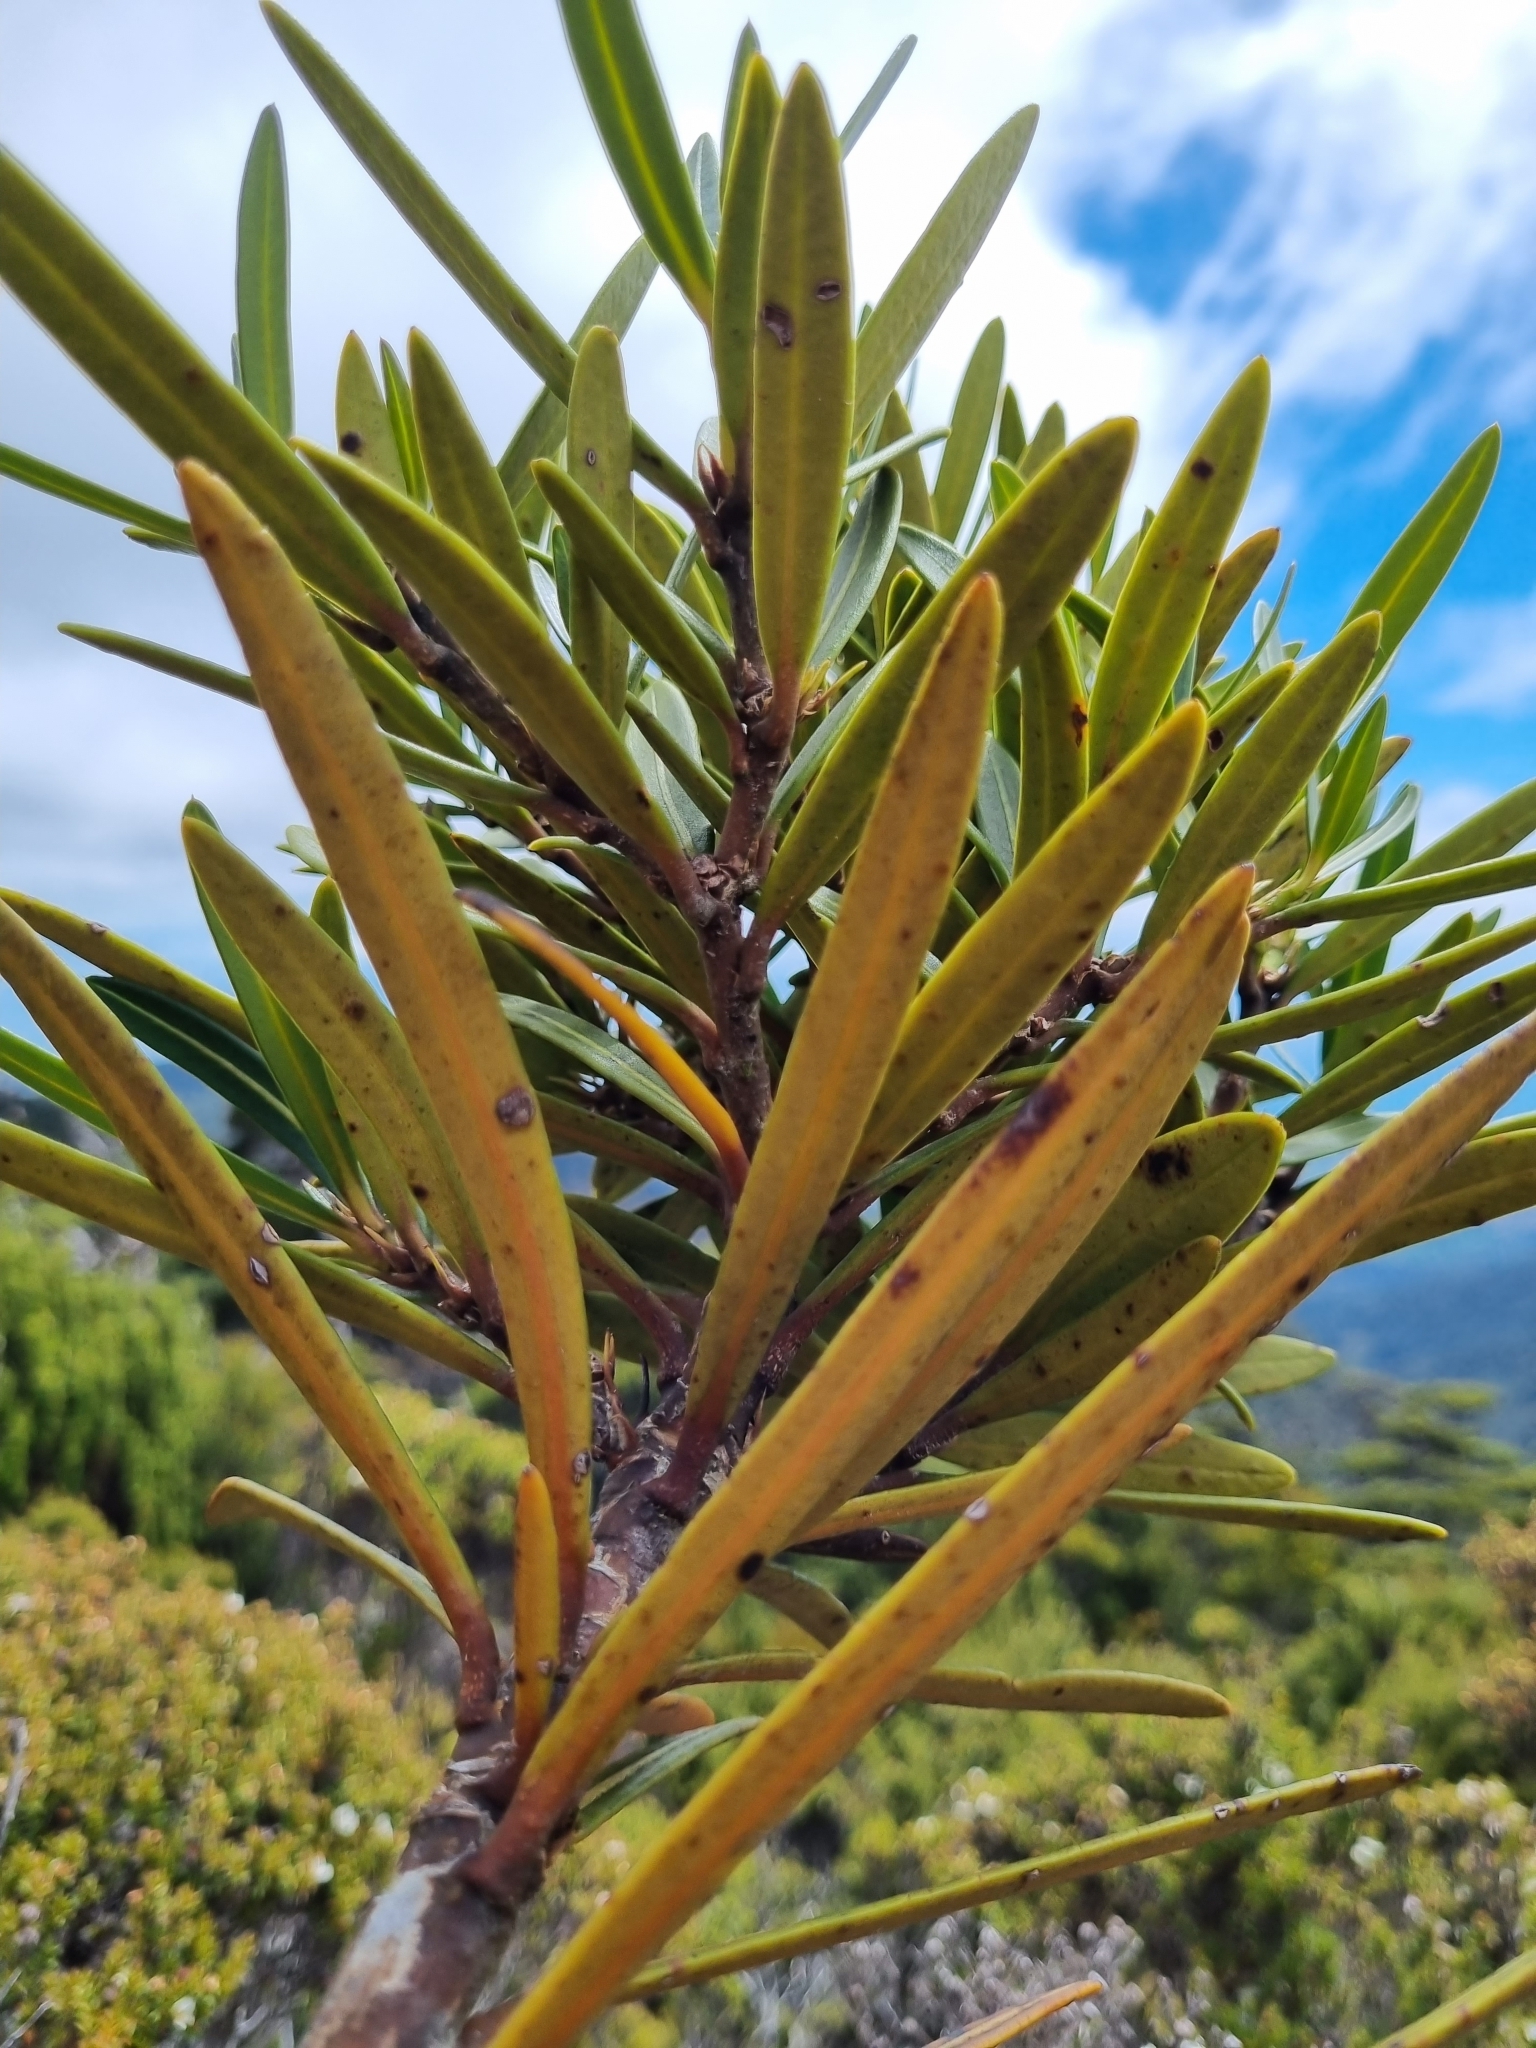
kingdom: Plantae
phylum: Tracheophyta
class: Magnoliopsida
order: Apiales
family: Araliaceae
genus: Pseudopanax
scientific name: Pseudopanax linearis
